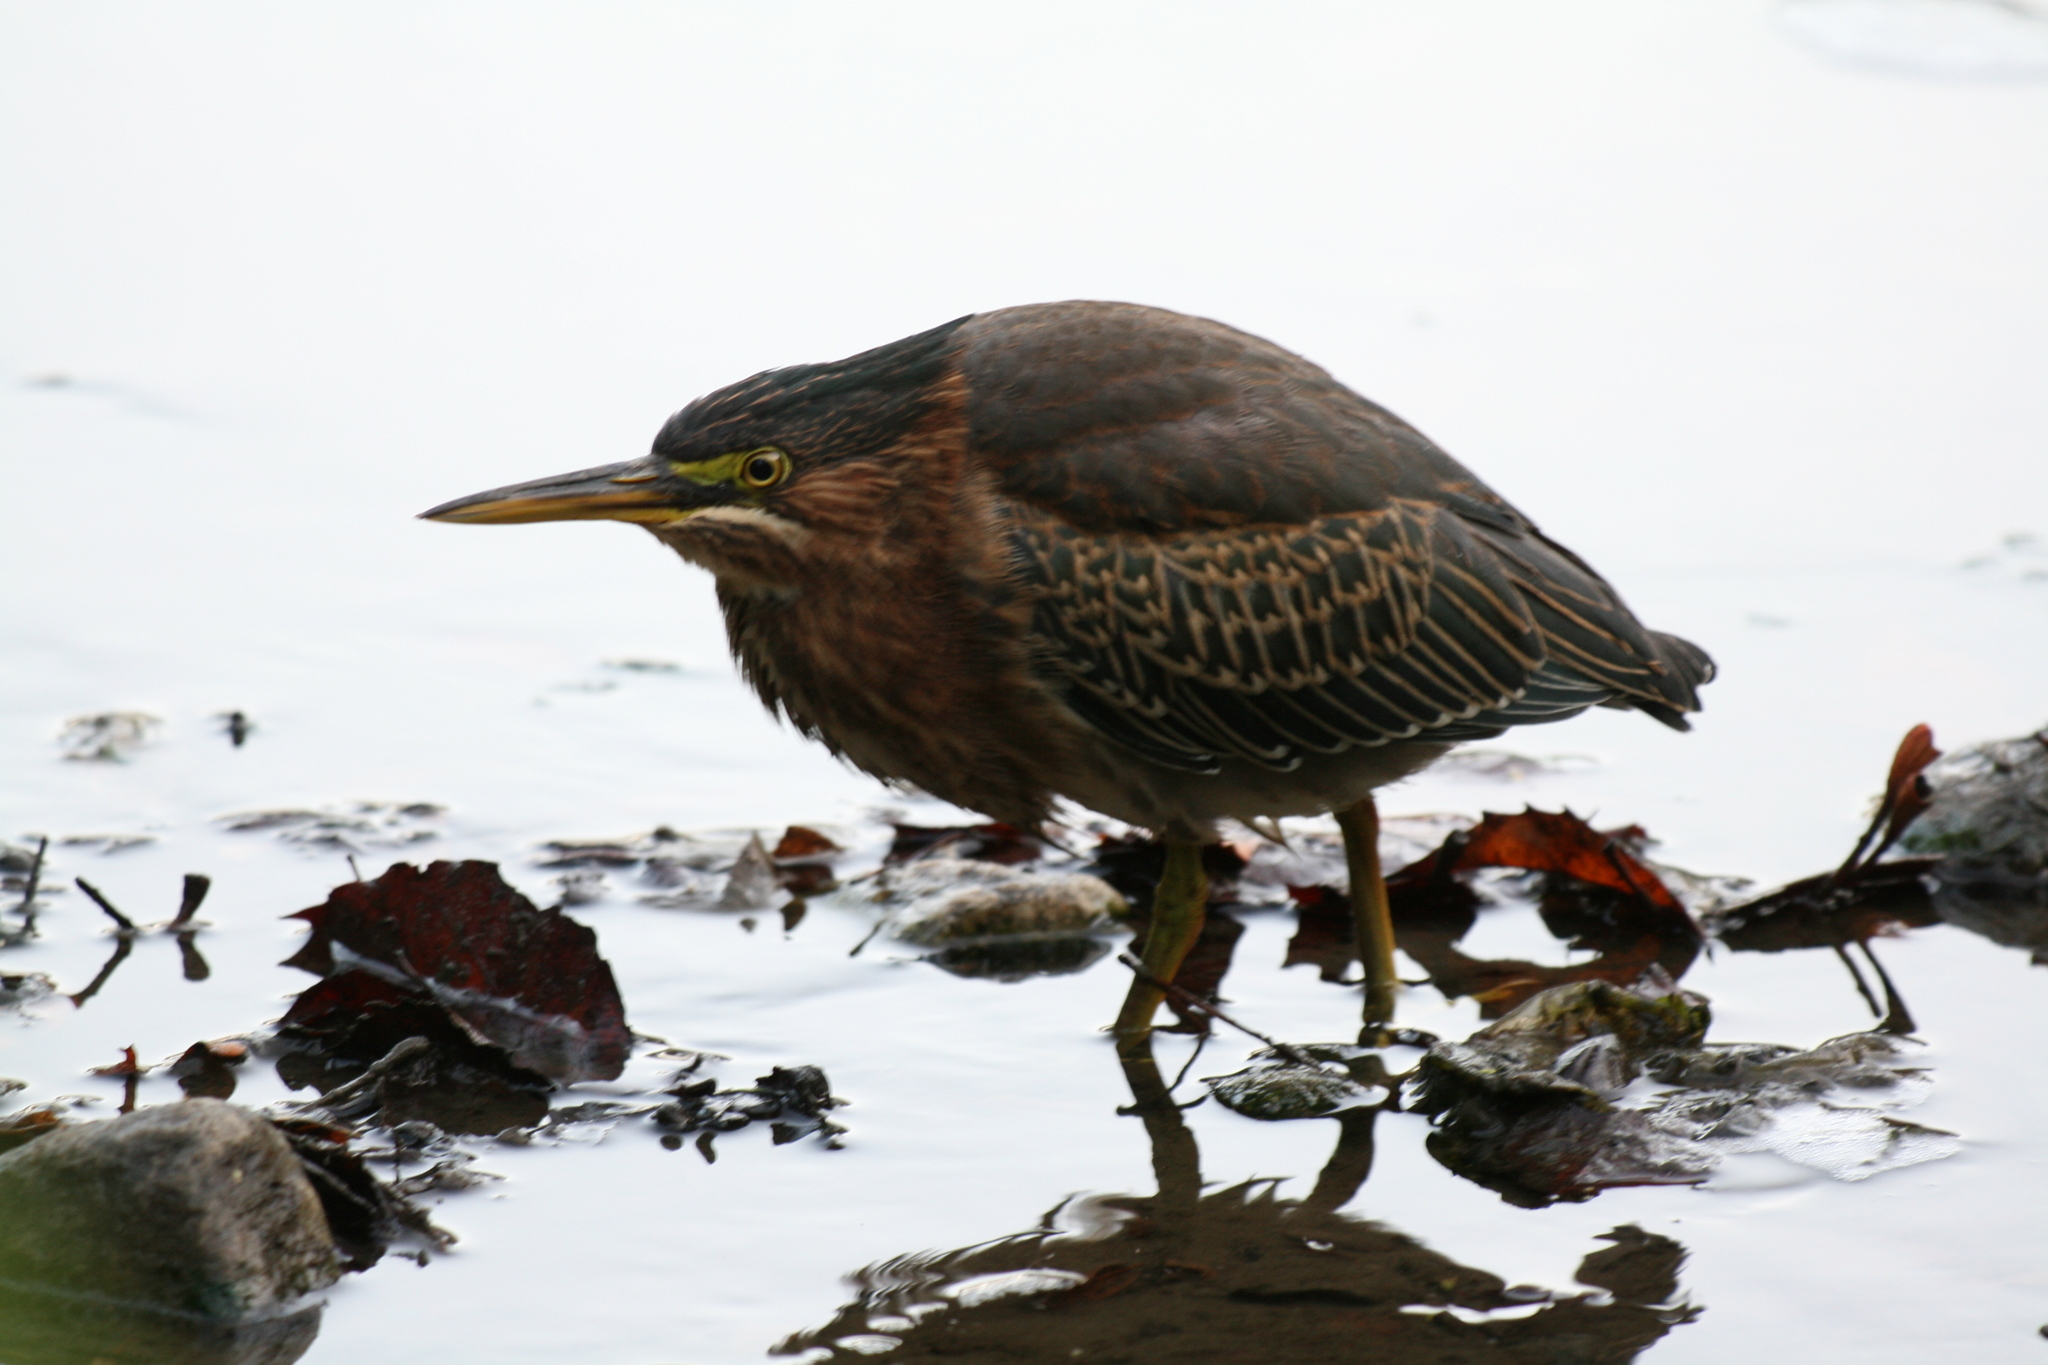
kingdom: Animalia
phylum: Chordata
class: Aves
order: Pelecaniformes
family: Ardeidae
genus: Butorides
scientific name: Butorides virescens
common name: Green heron
